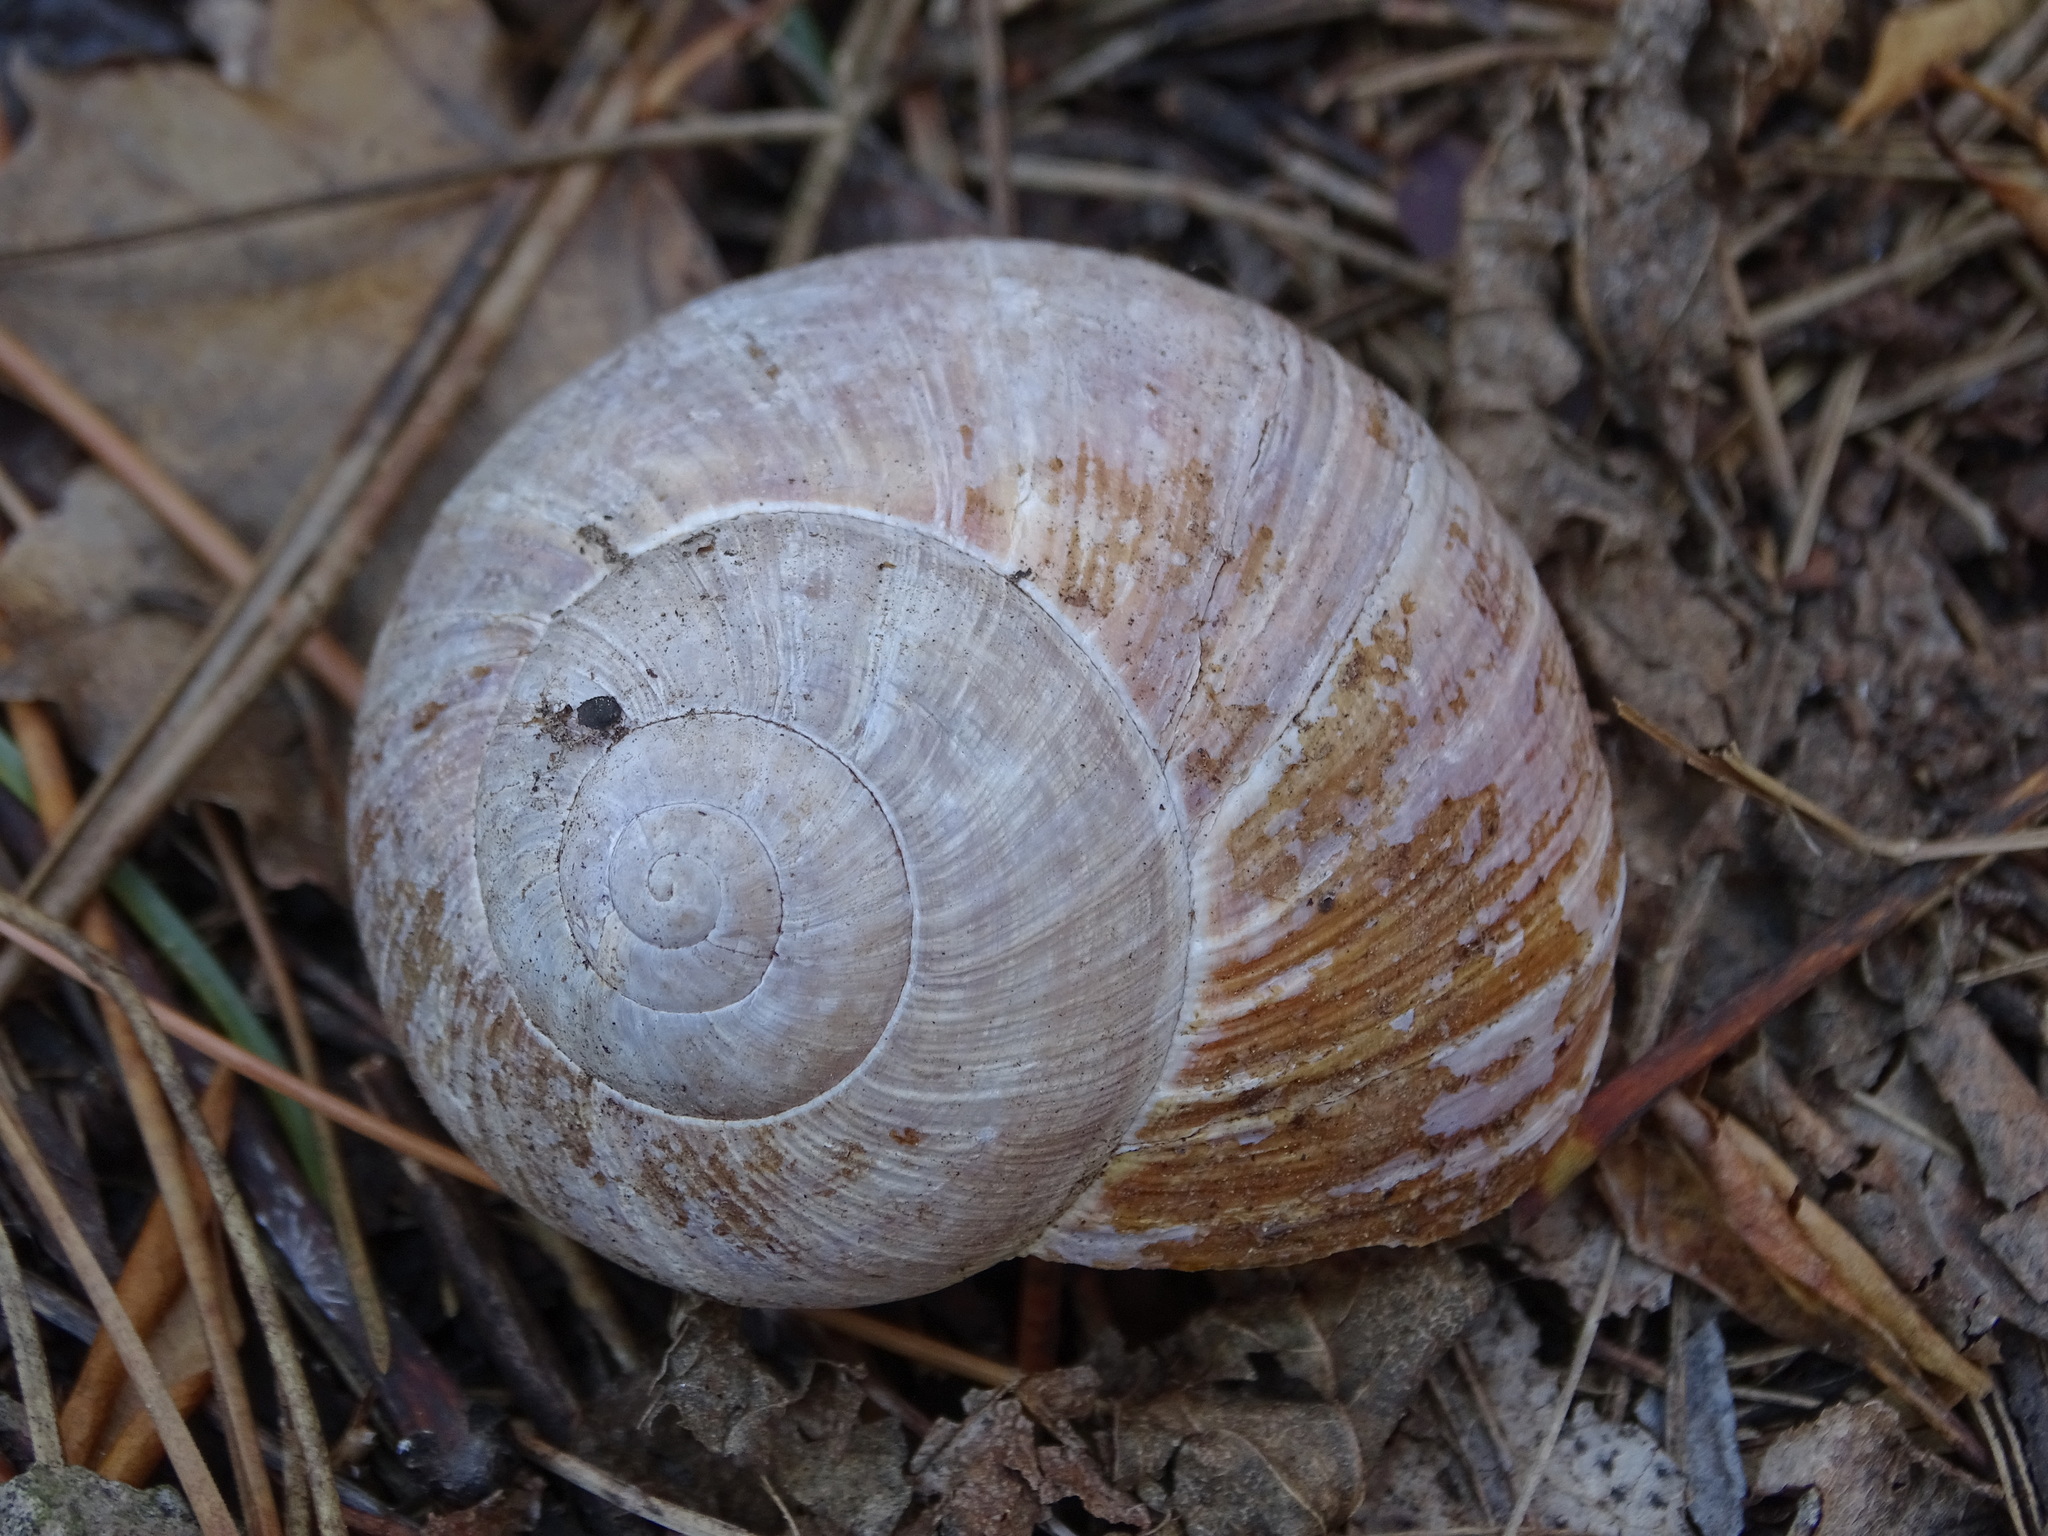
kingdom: Animalia
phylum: Mollusca
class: Gastropoda
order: Stylommatophora
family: Helicidae
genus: Helix
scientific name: Helix pomatia
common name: Roman snail
